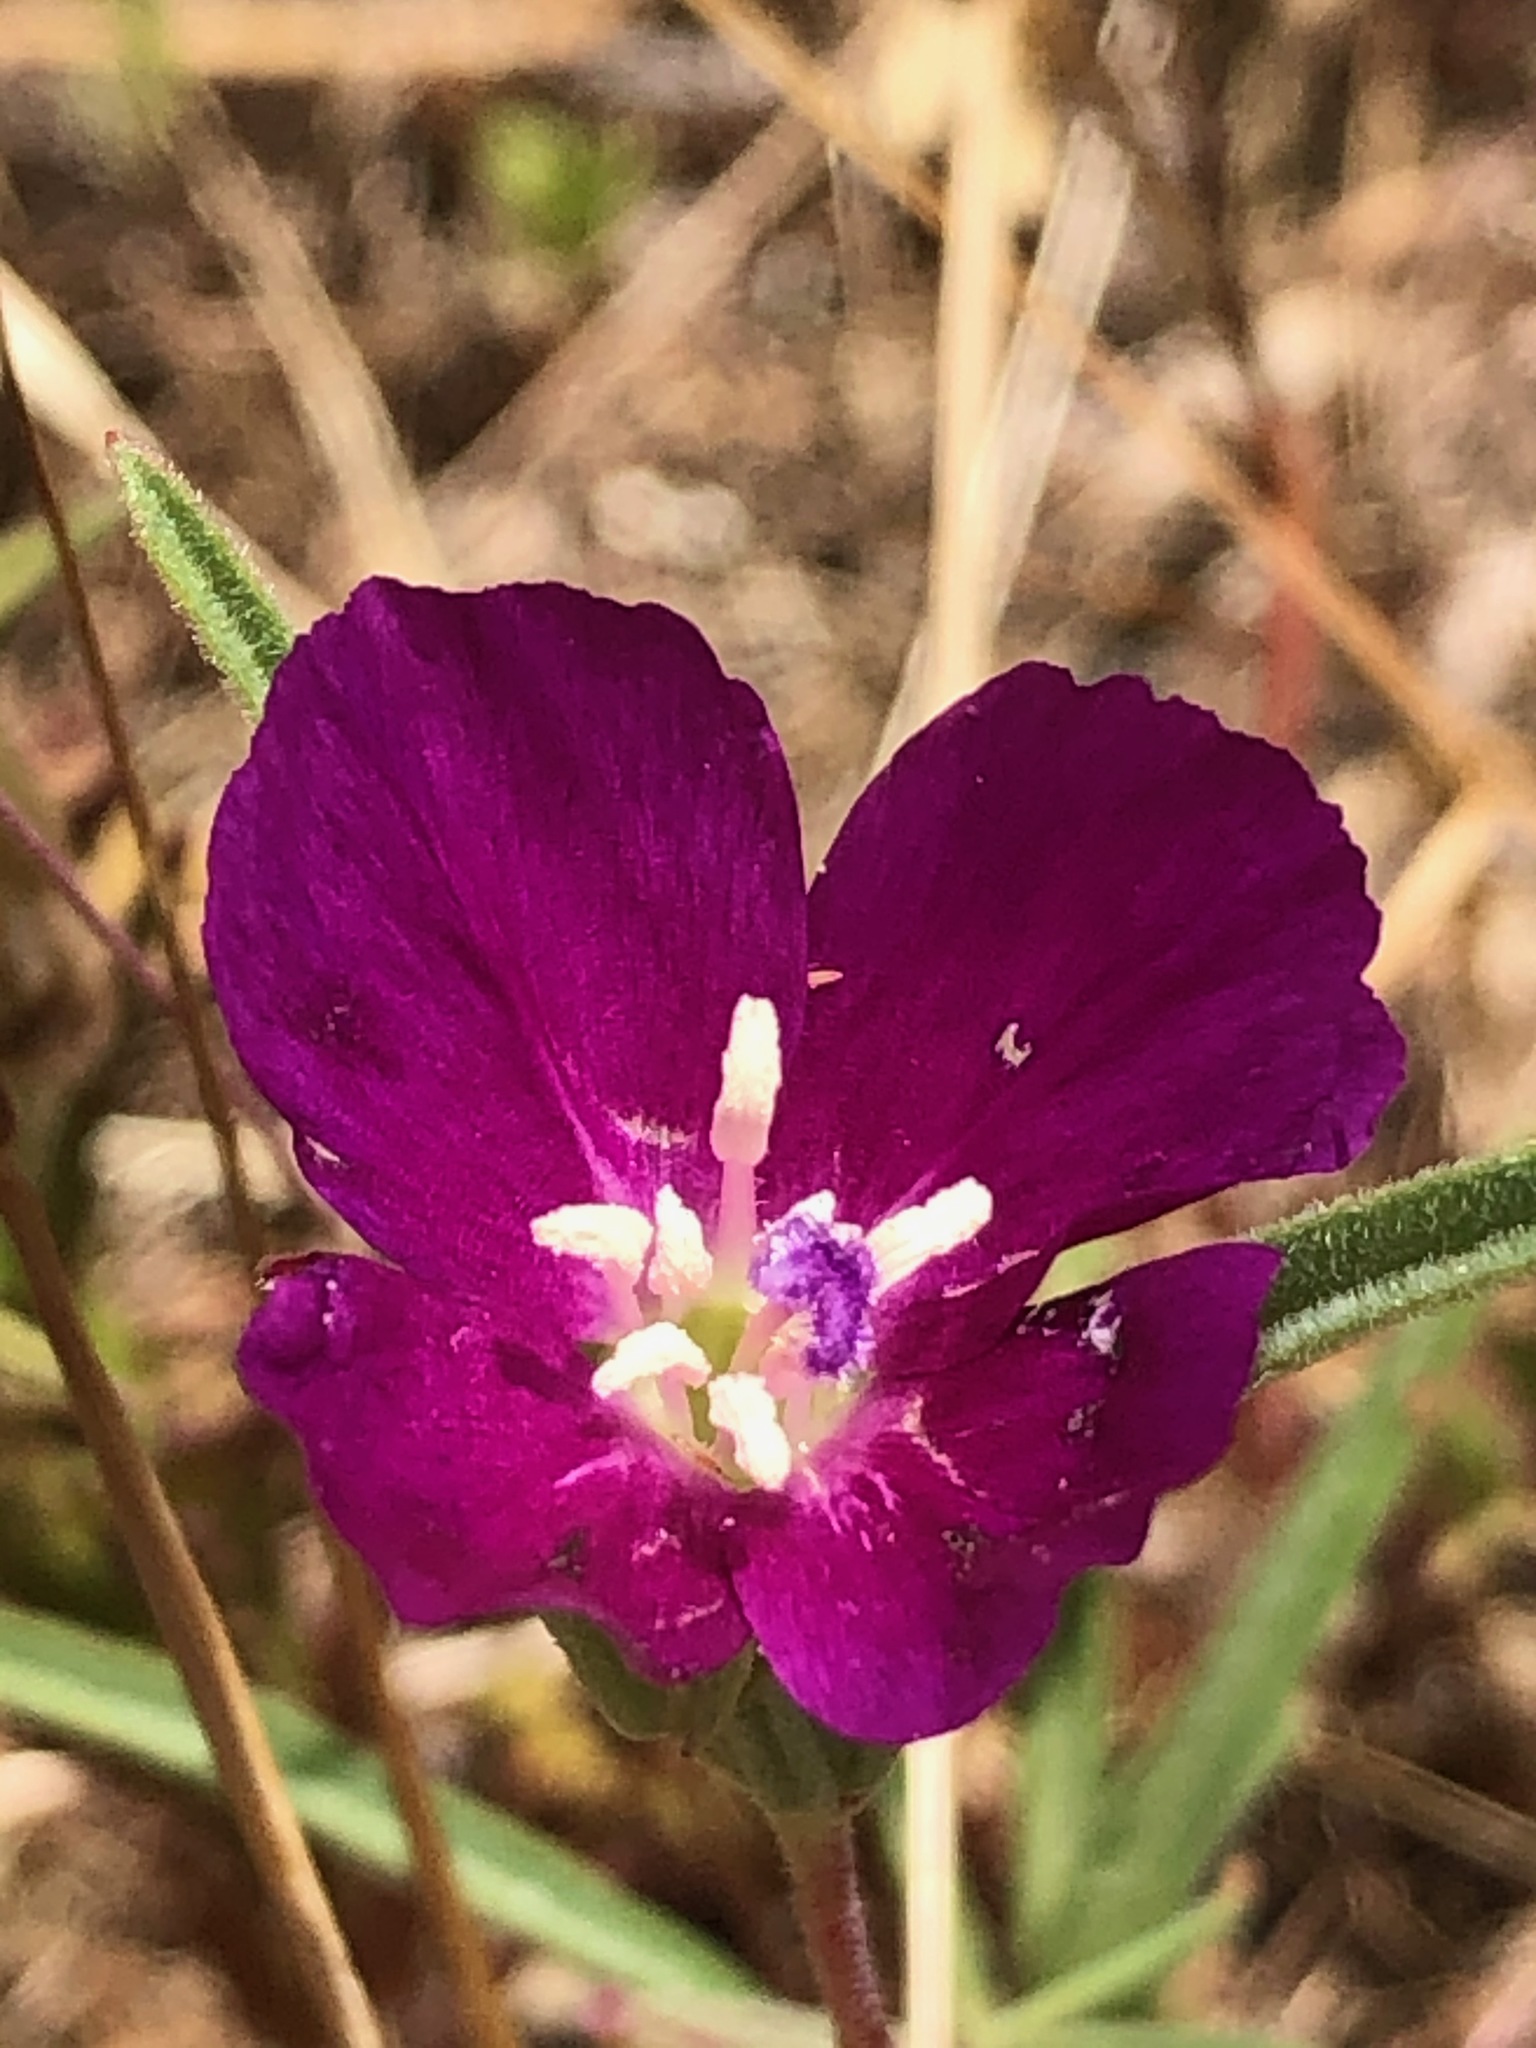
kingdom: Plantae
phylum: Tracheophyta
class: Magnoliopsida
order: Myrtales
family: Onagraceae
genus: Clarkia
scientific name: Clarkia purpurea
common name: Purple clarkia
